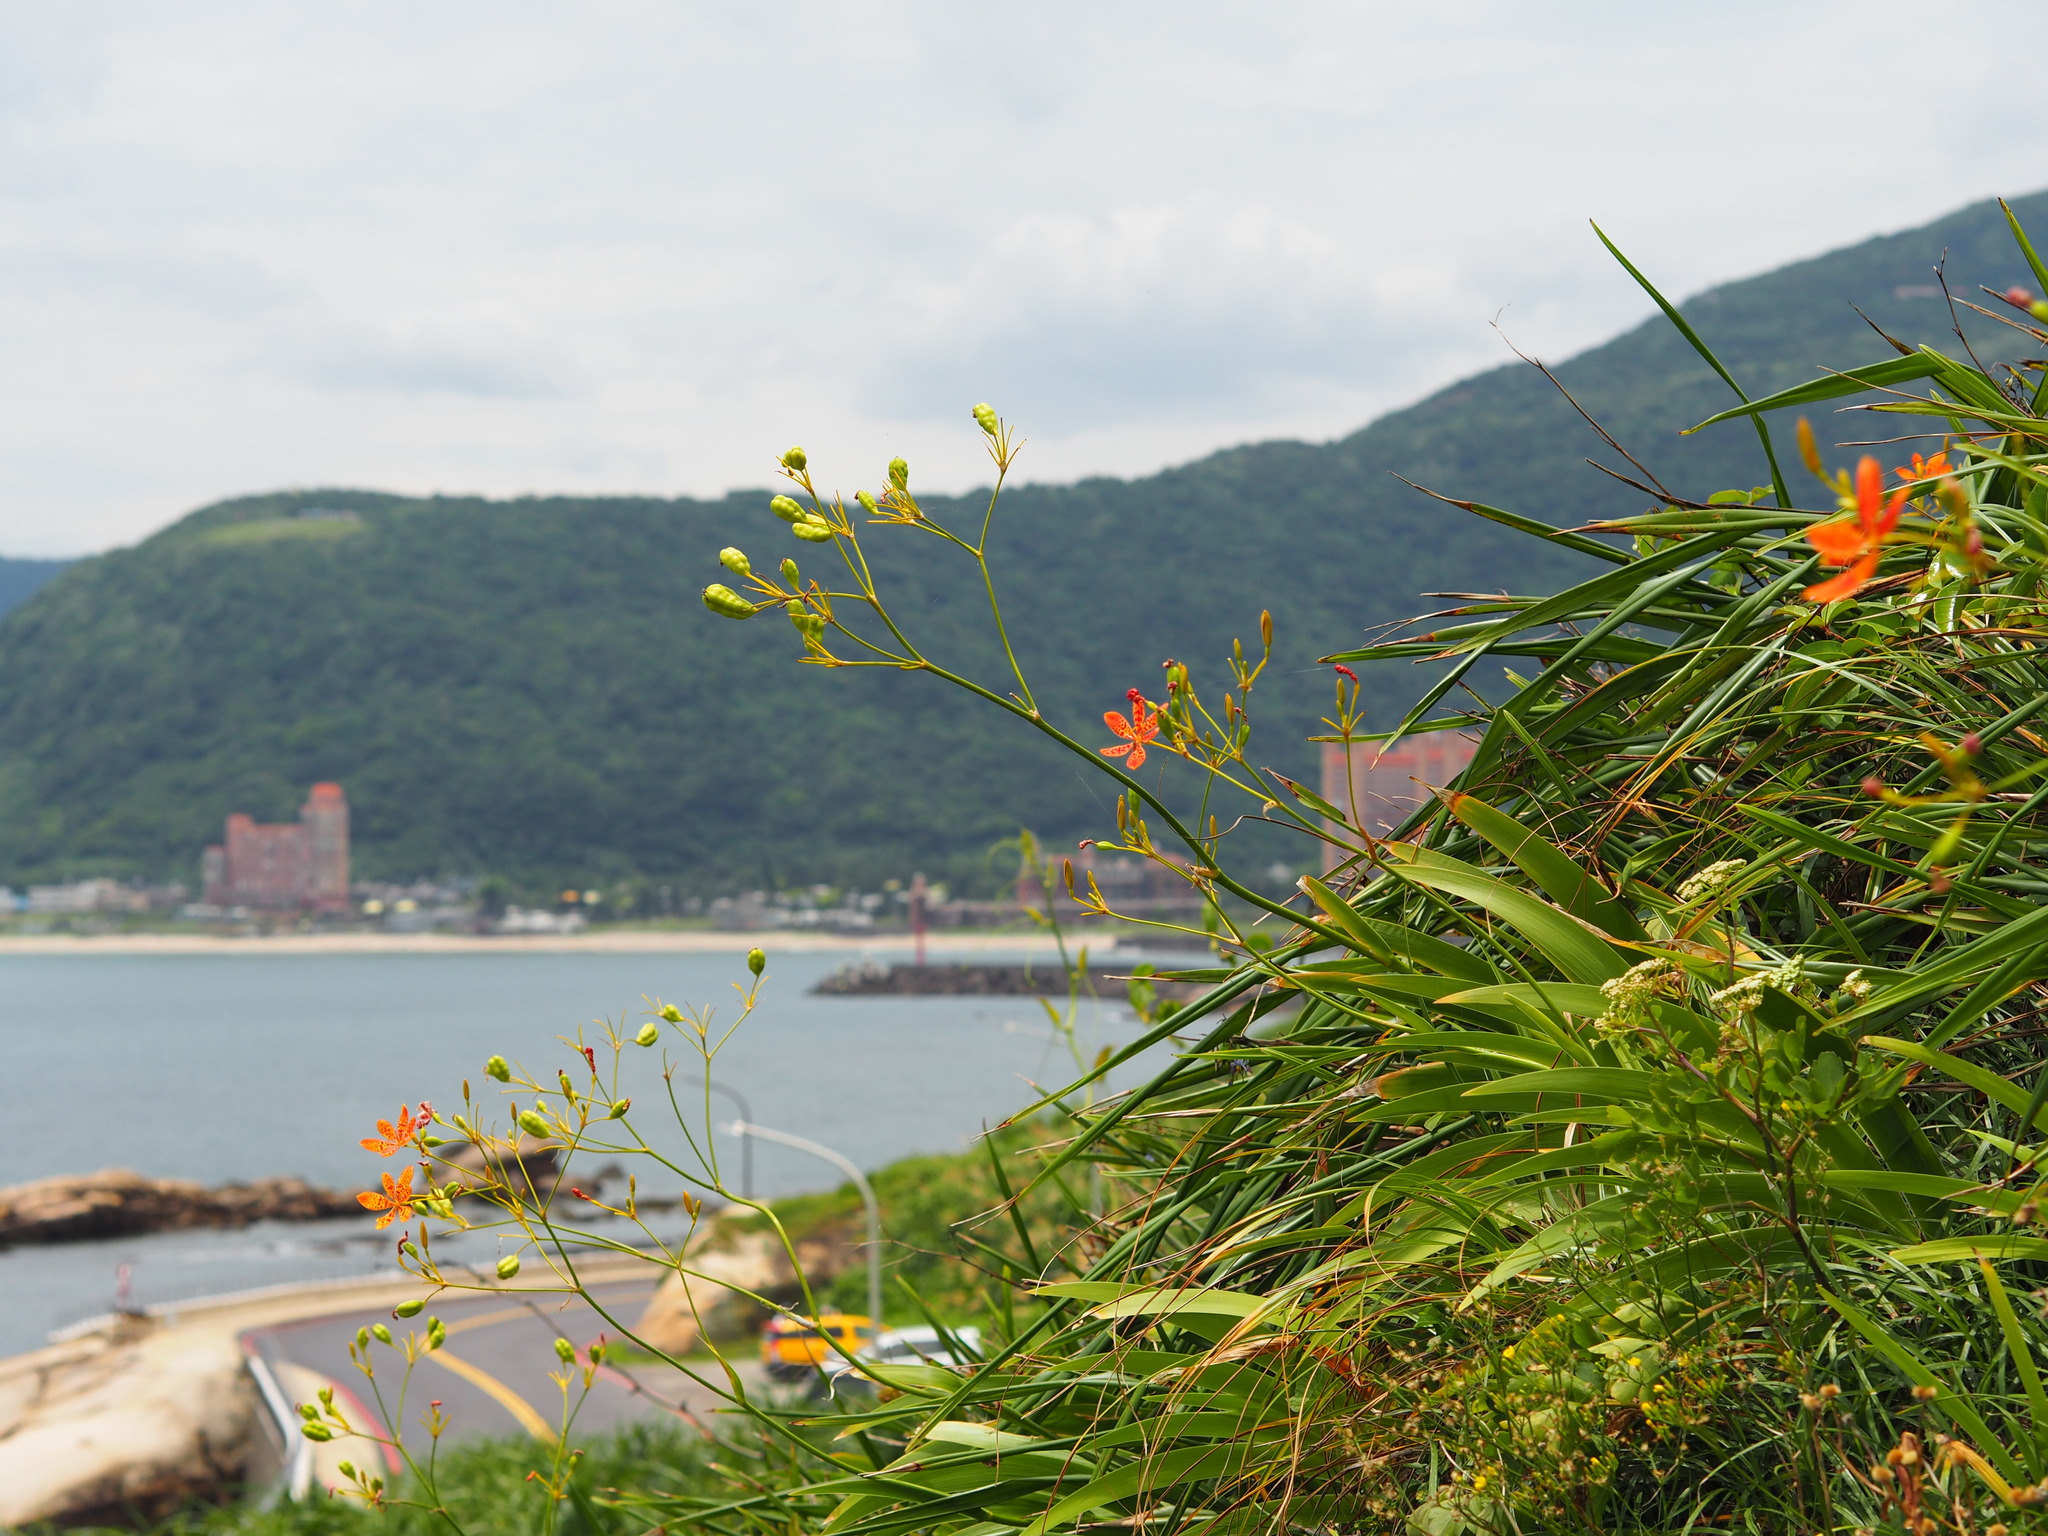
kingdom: Plantae
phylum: Tracheophyta
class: Liliopsida
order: Asparagales
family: Iridaceae
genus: Iris
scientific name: Iris domestica
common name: Belamcanda
